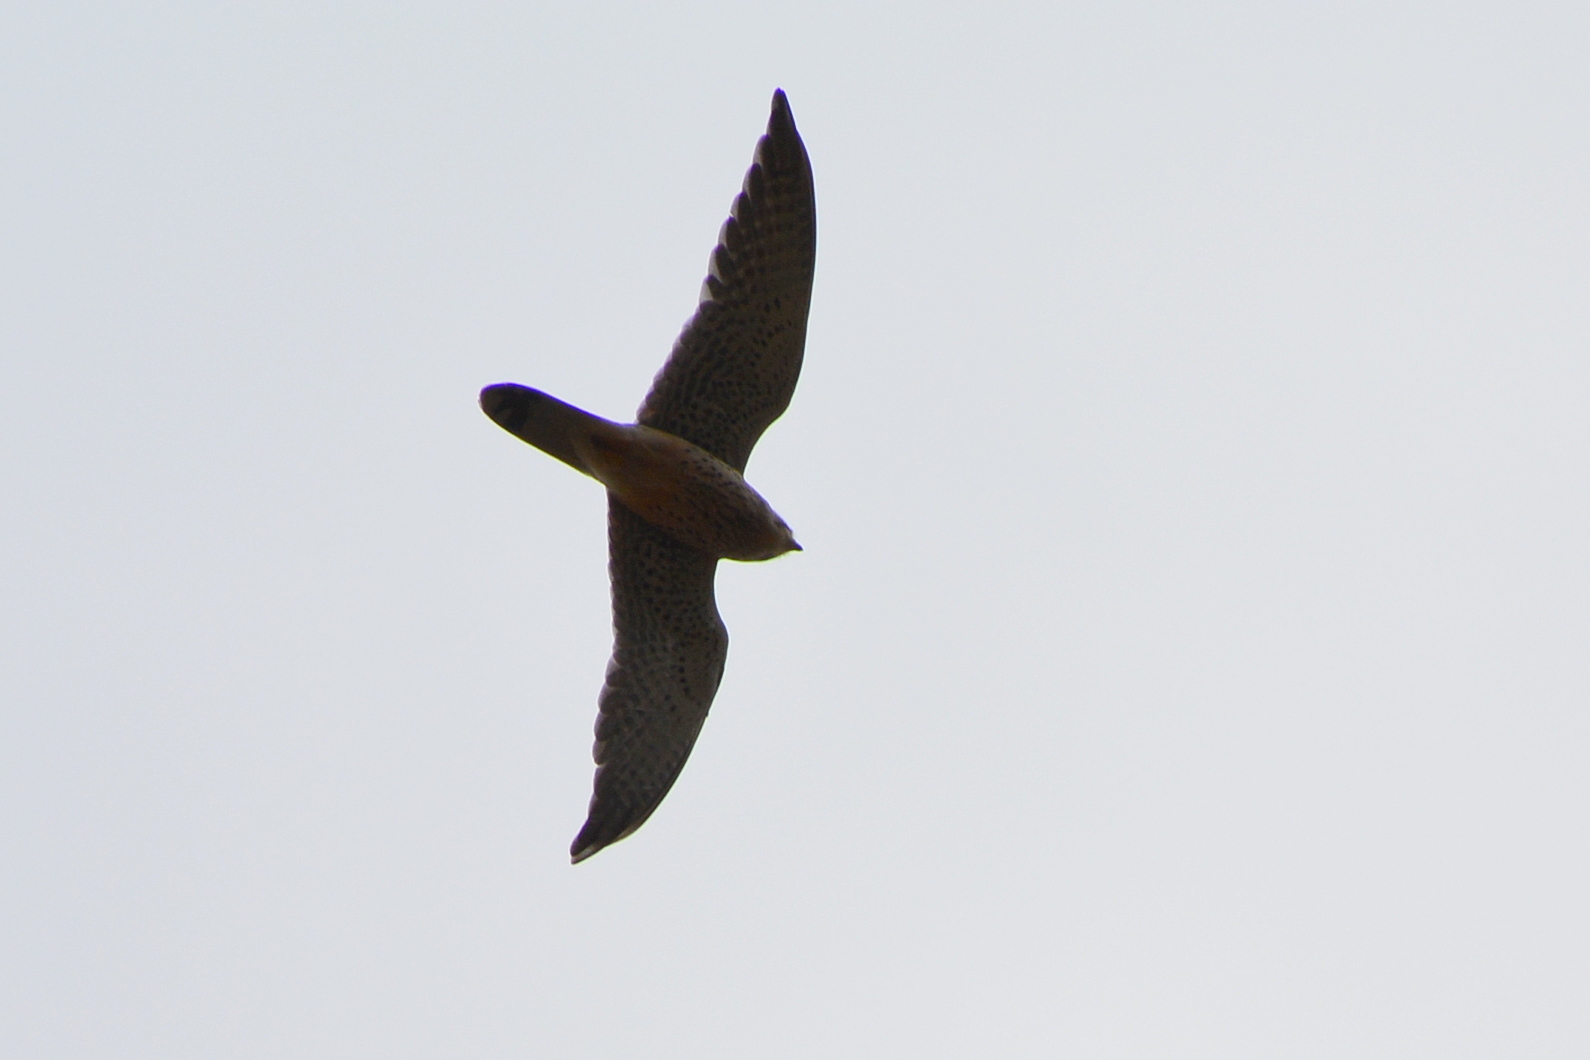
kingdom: Animalia
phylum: Chordata
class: Aves
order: Falconiformes
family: Falconidae
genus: Falco
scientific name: Falco tinnunculus
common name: Common kestrel
